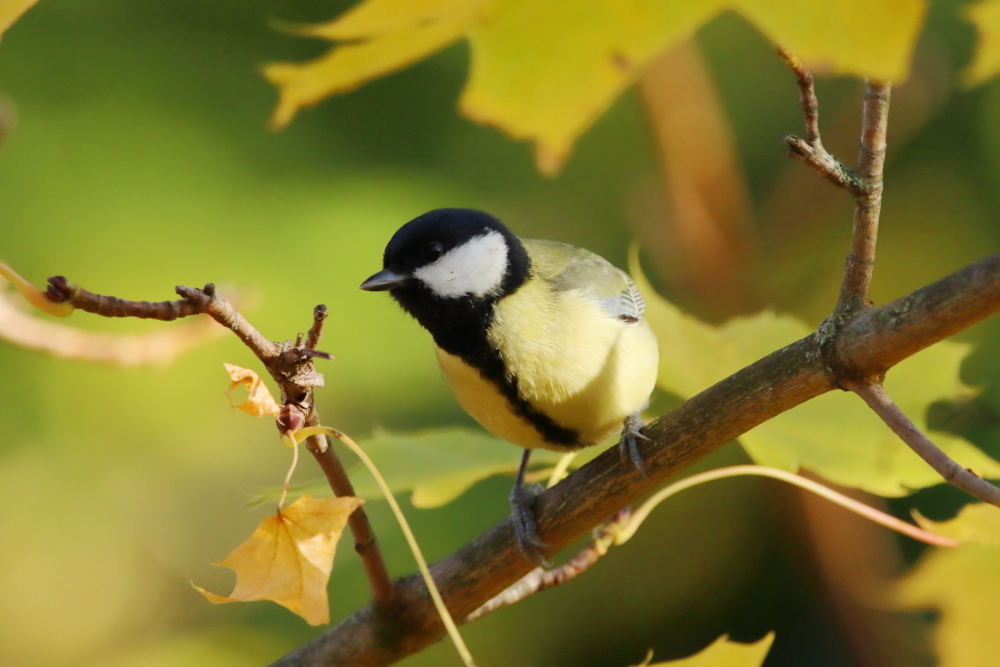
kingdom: Animalia
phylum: Chordata
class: Aves
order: Passeriformes
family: Paridae
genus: Parus
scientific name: Parus major
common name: Great tit
